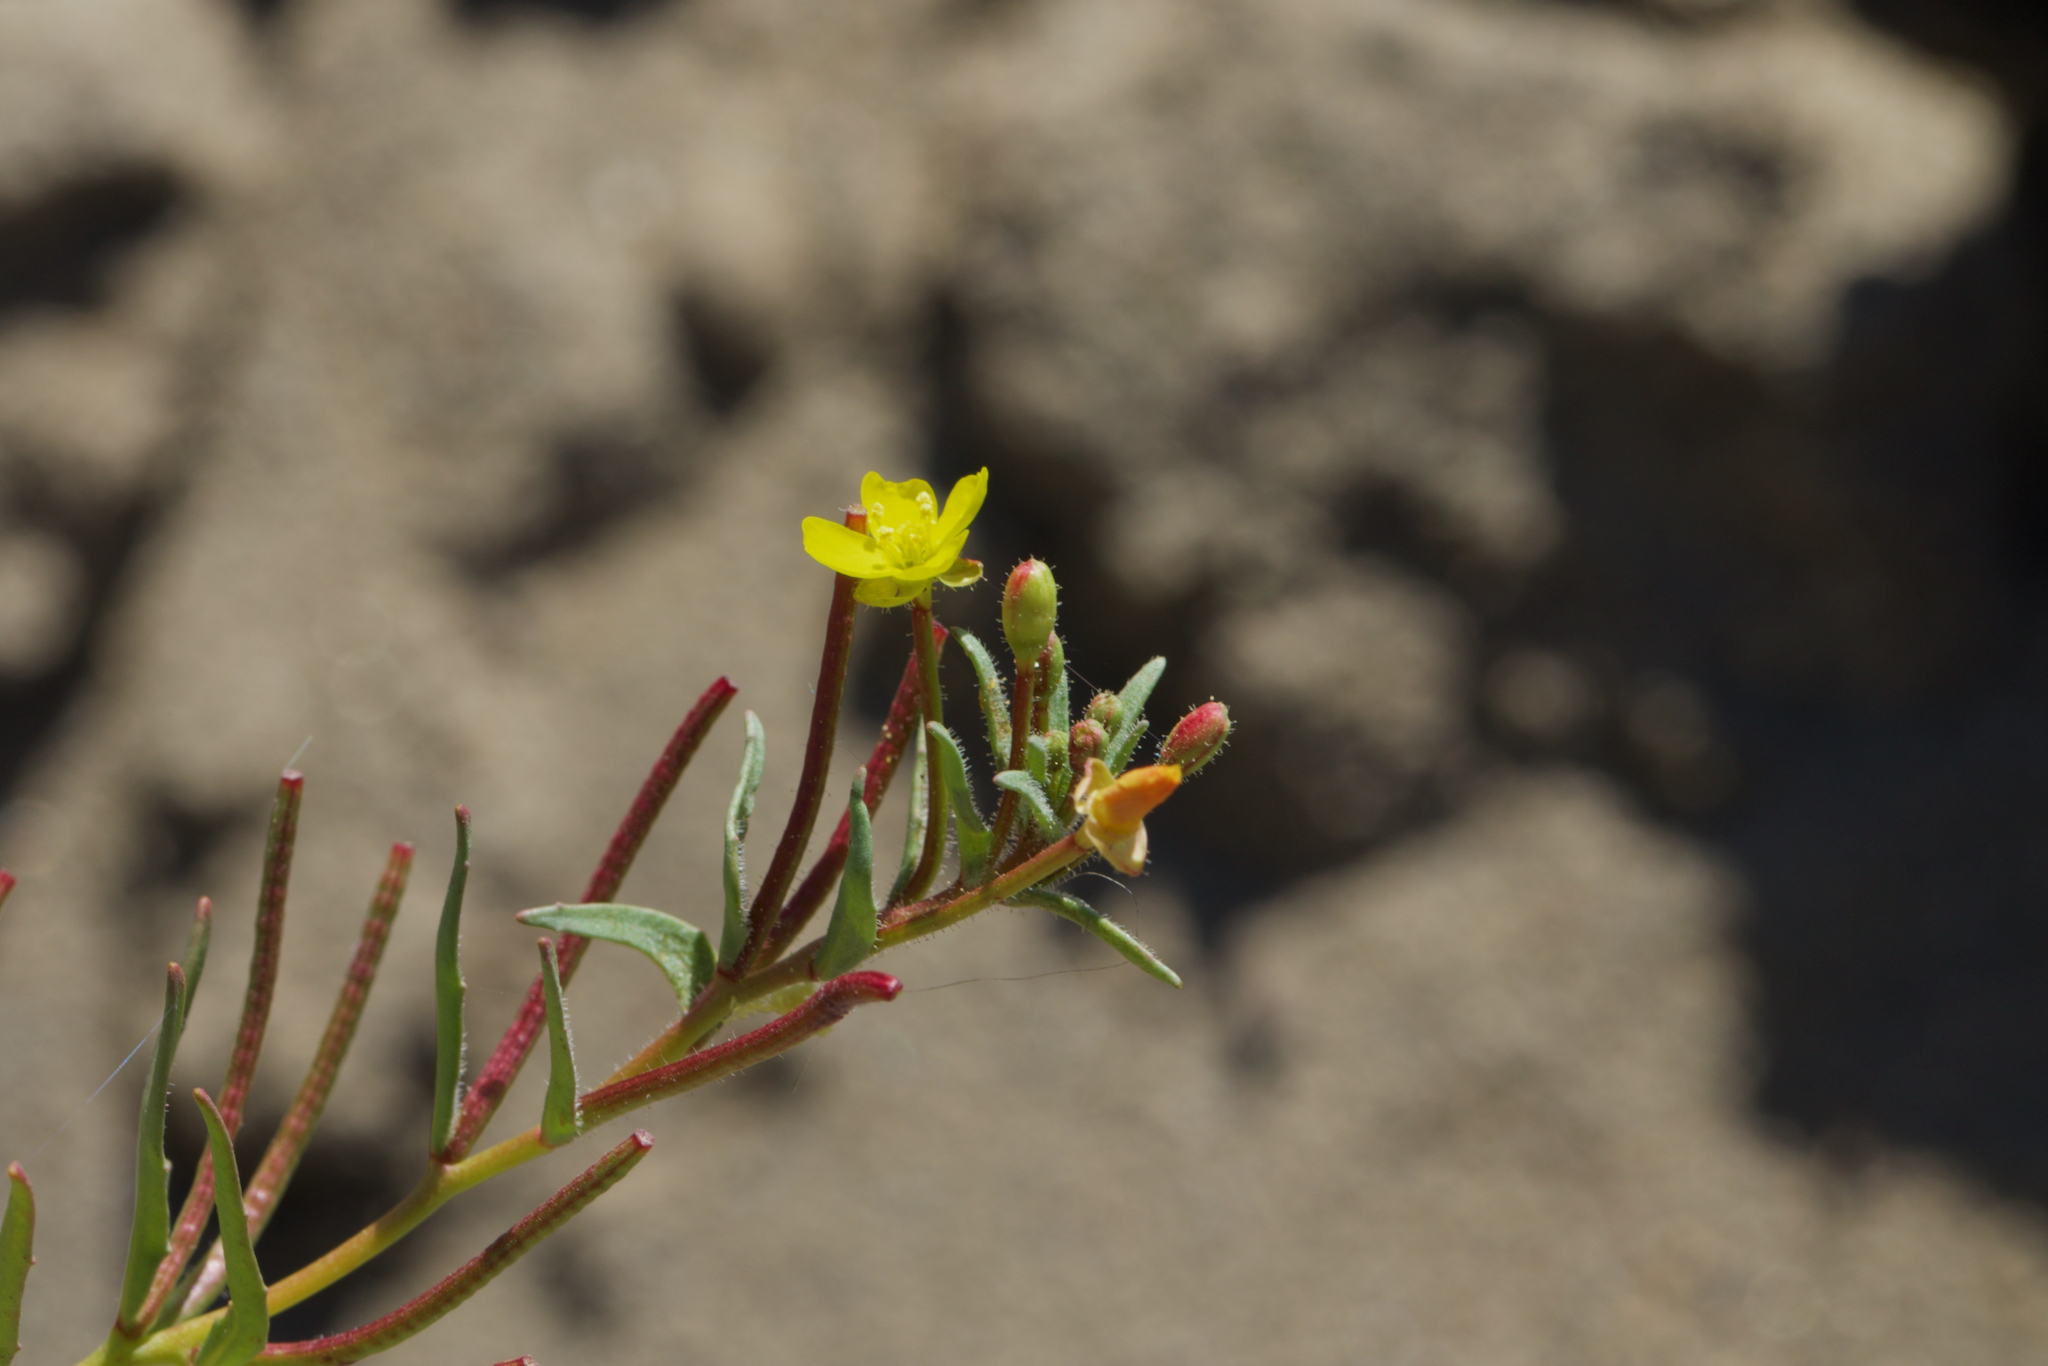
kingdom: Plantae
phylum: Tracheophyta
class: Magnoliopsida
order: Myrtales
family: Onagraceae
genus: Camissonia
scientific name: Camissonia contorta
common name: Contorted suncup
